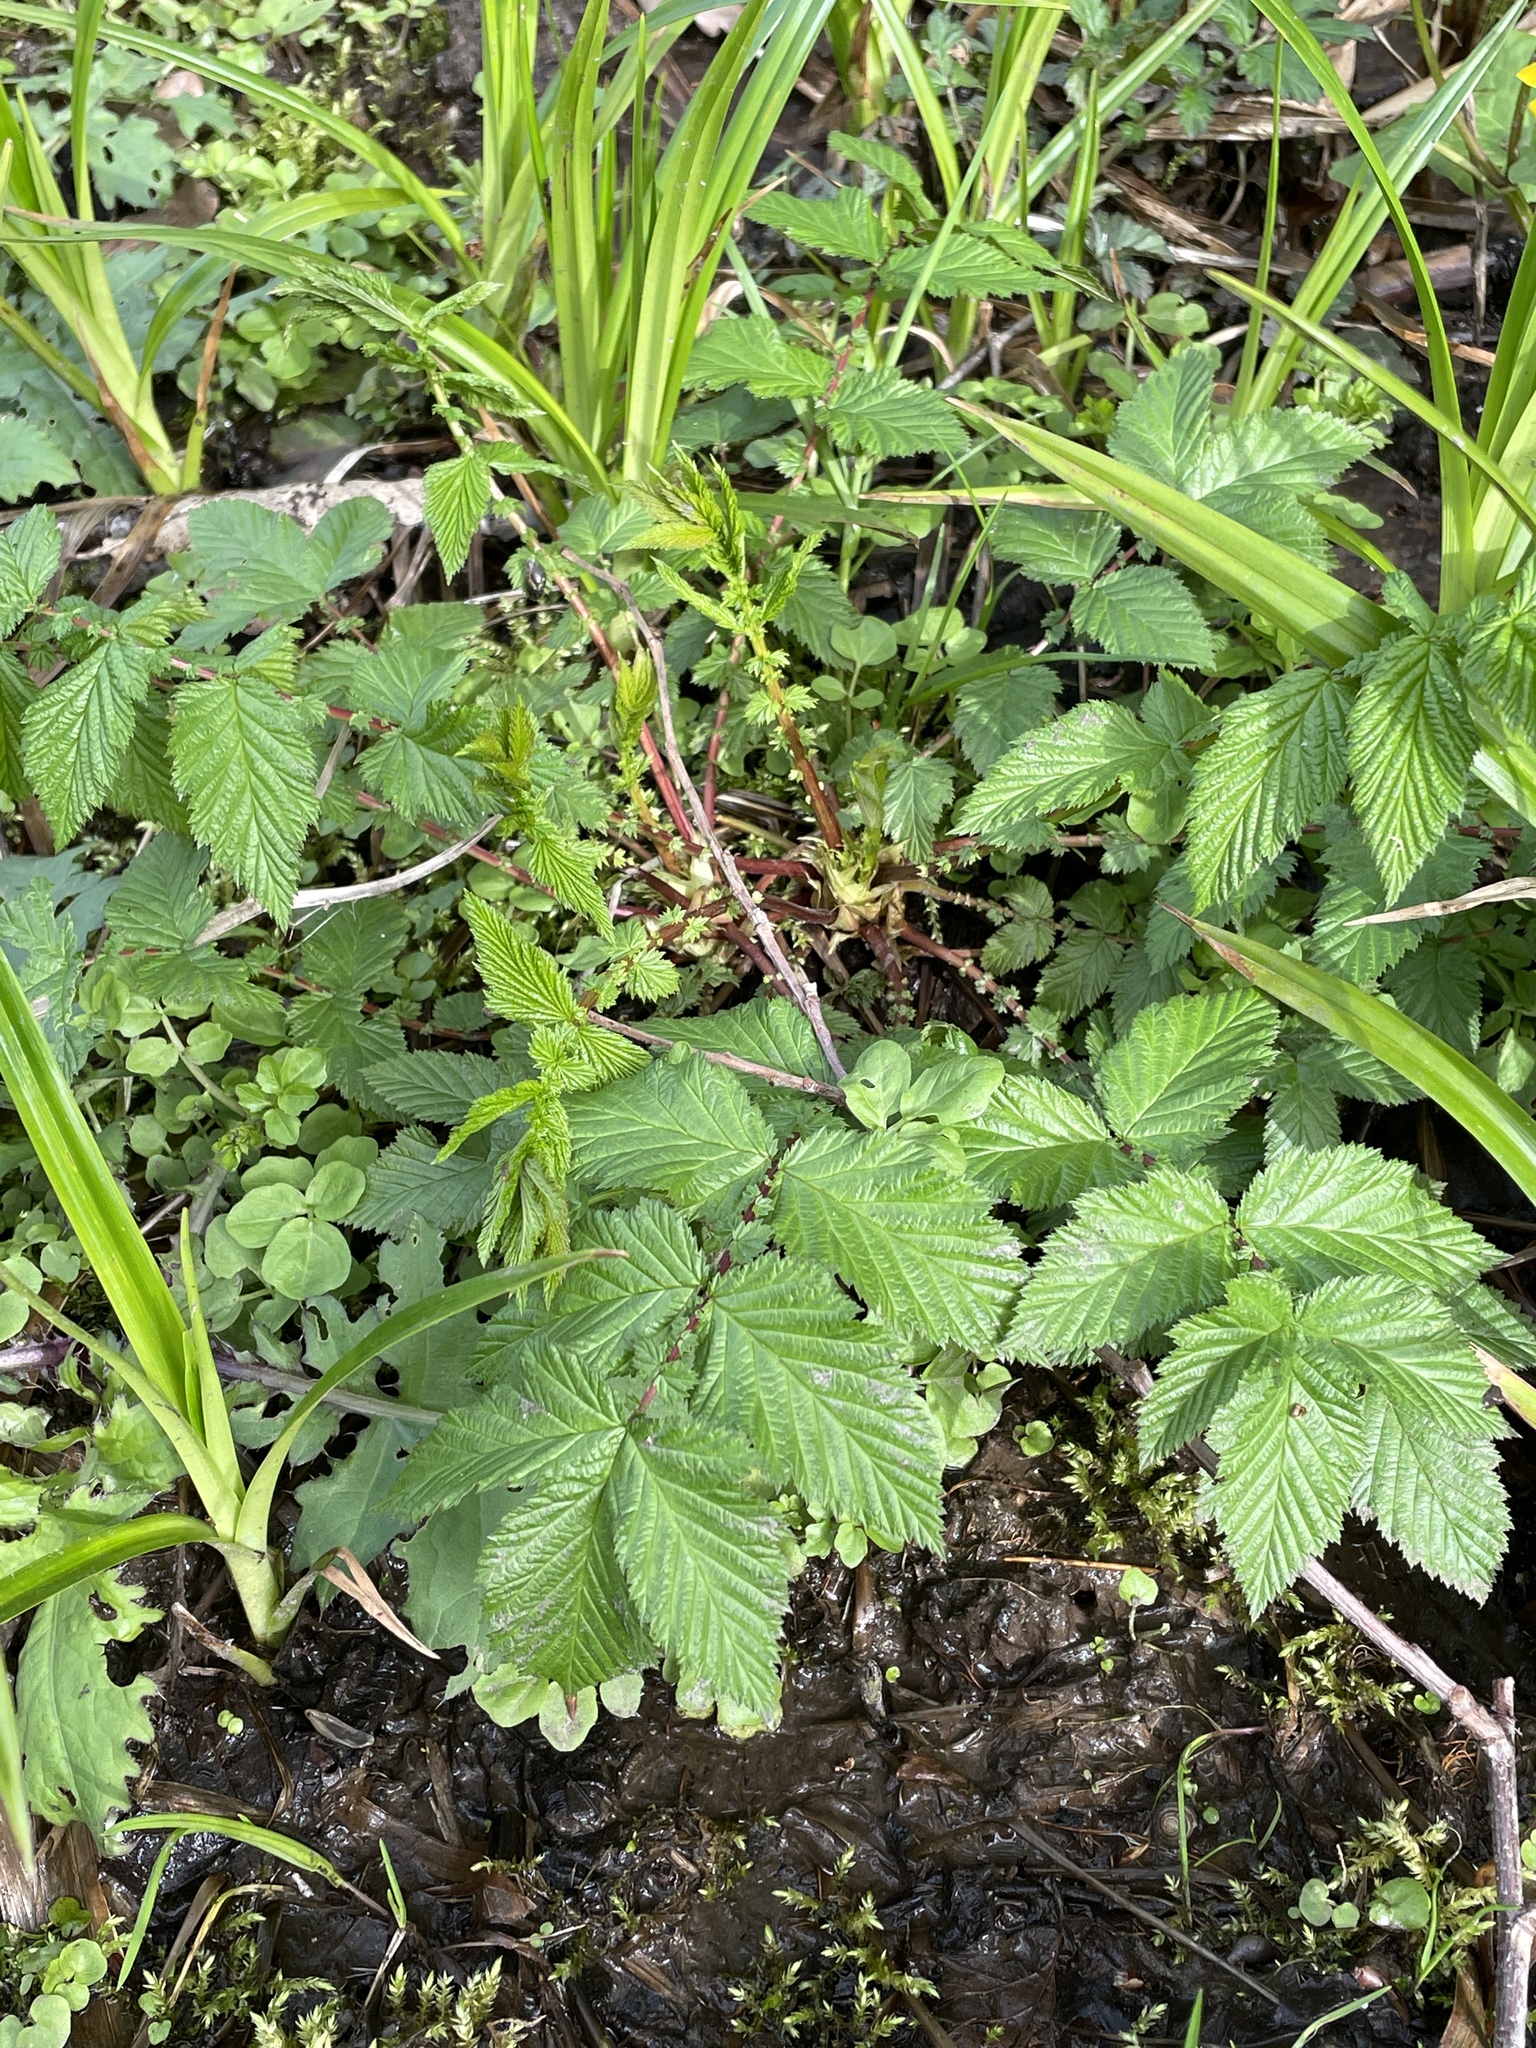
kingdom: Plantae
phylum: Tracheophyta
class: Magnoliopsida
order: Rosales
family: Rosaceae
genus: Filipendula
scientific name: Filipendula ulmaria
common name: Meadowsweet
